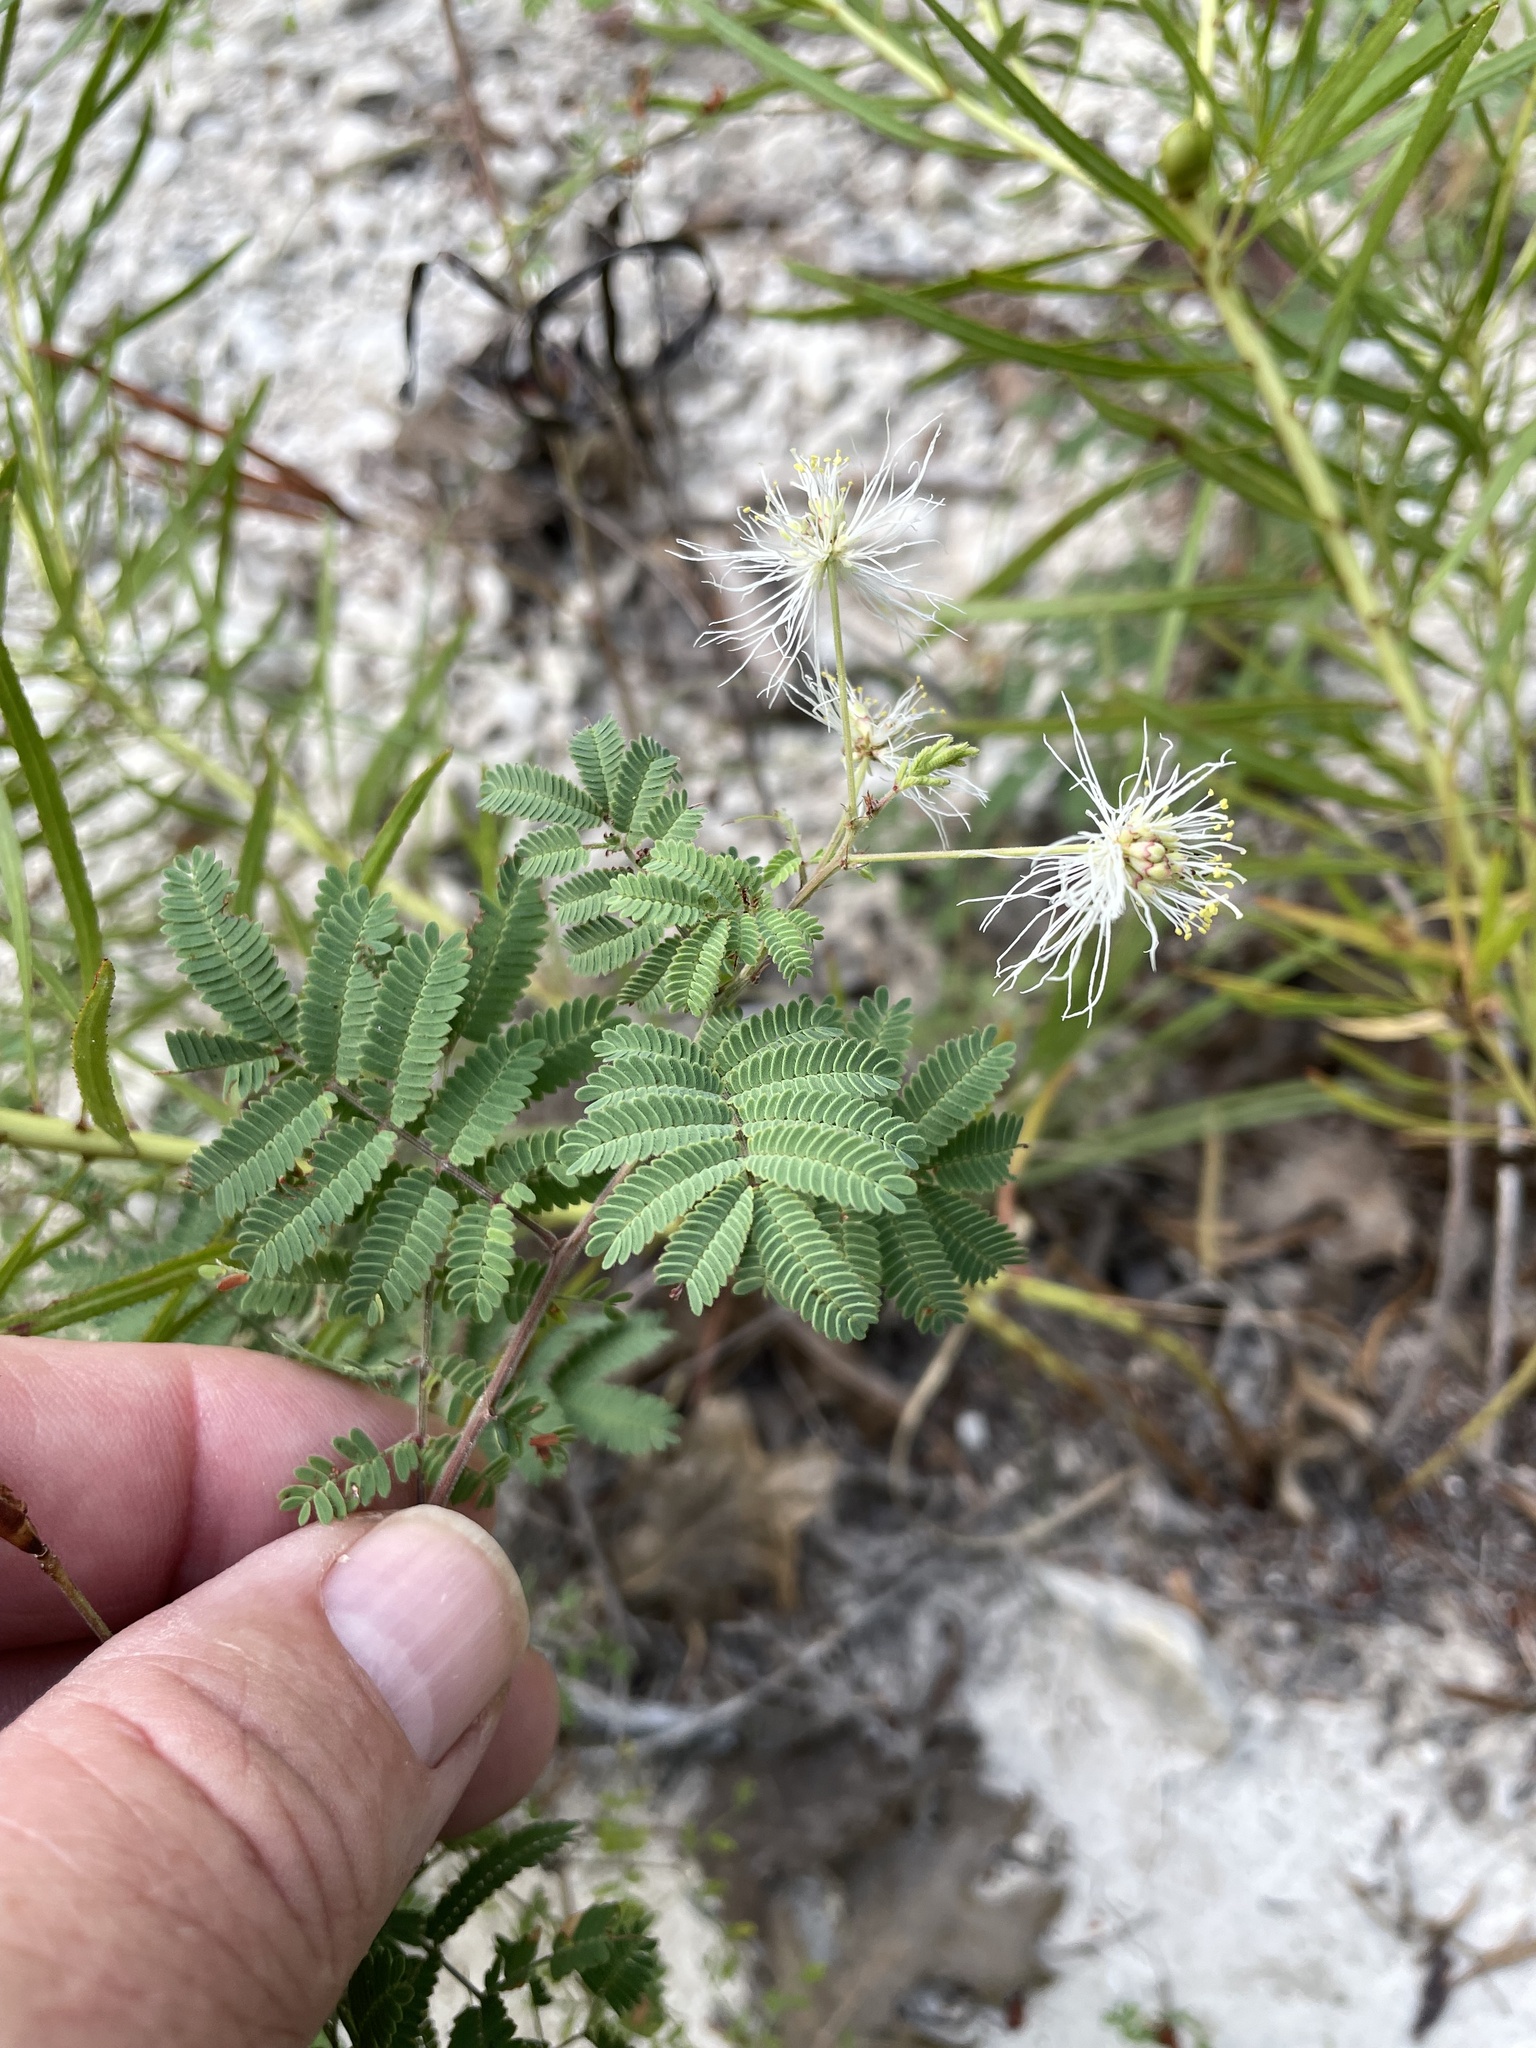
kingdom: Plantae
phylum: Tracheophyta
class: Magnoliopsida
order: Fabales
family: Fabaceae
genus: Desmanthus
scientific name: Desmanthus velutinus
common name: Velvet bundle-flower
